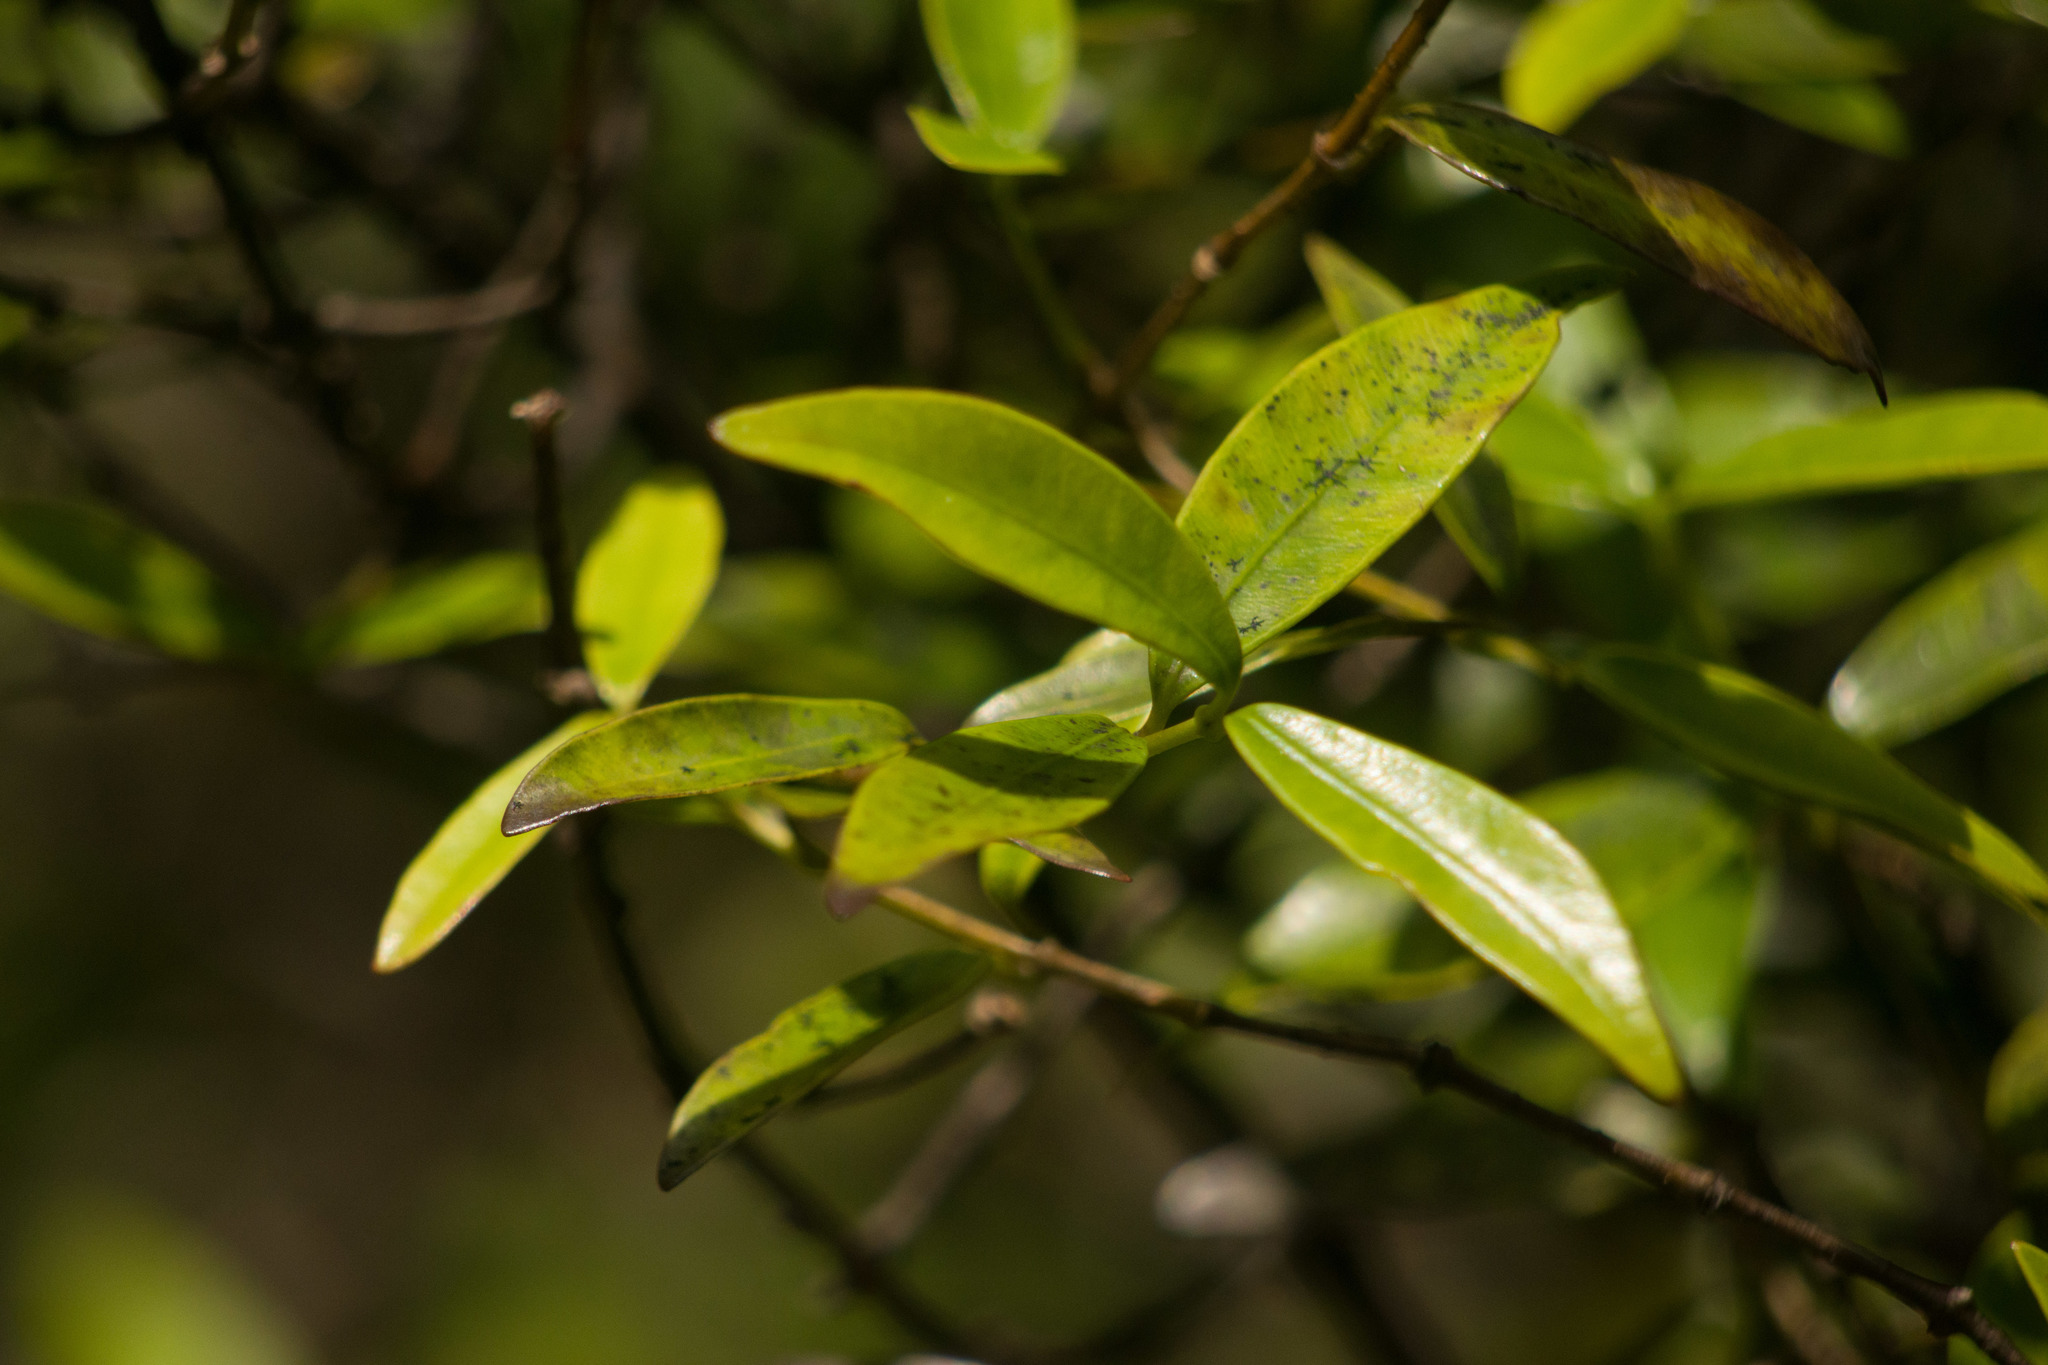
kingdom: Plantae
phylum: Tracheophyta
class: Magnoliopsida
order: Gentianales
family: Apocynaceae
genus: Alyxia
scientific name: Alyxia stellata
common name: Maile
